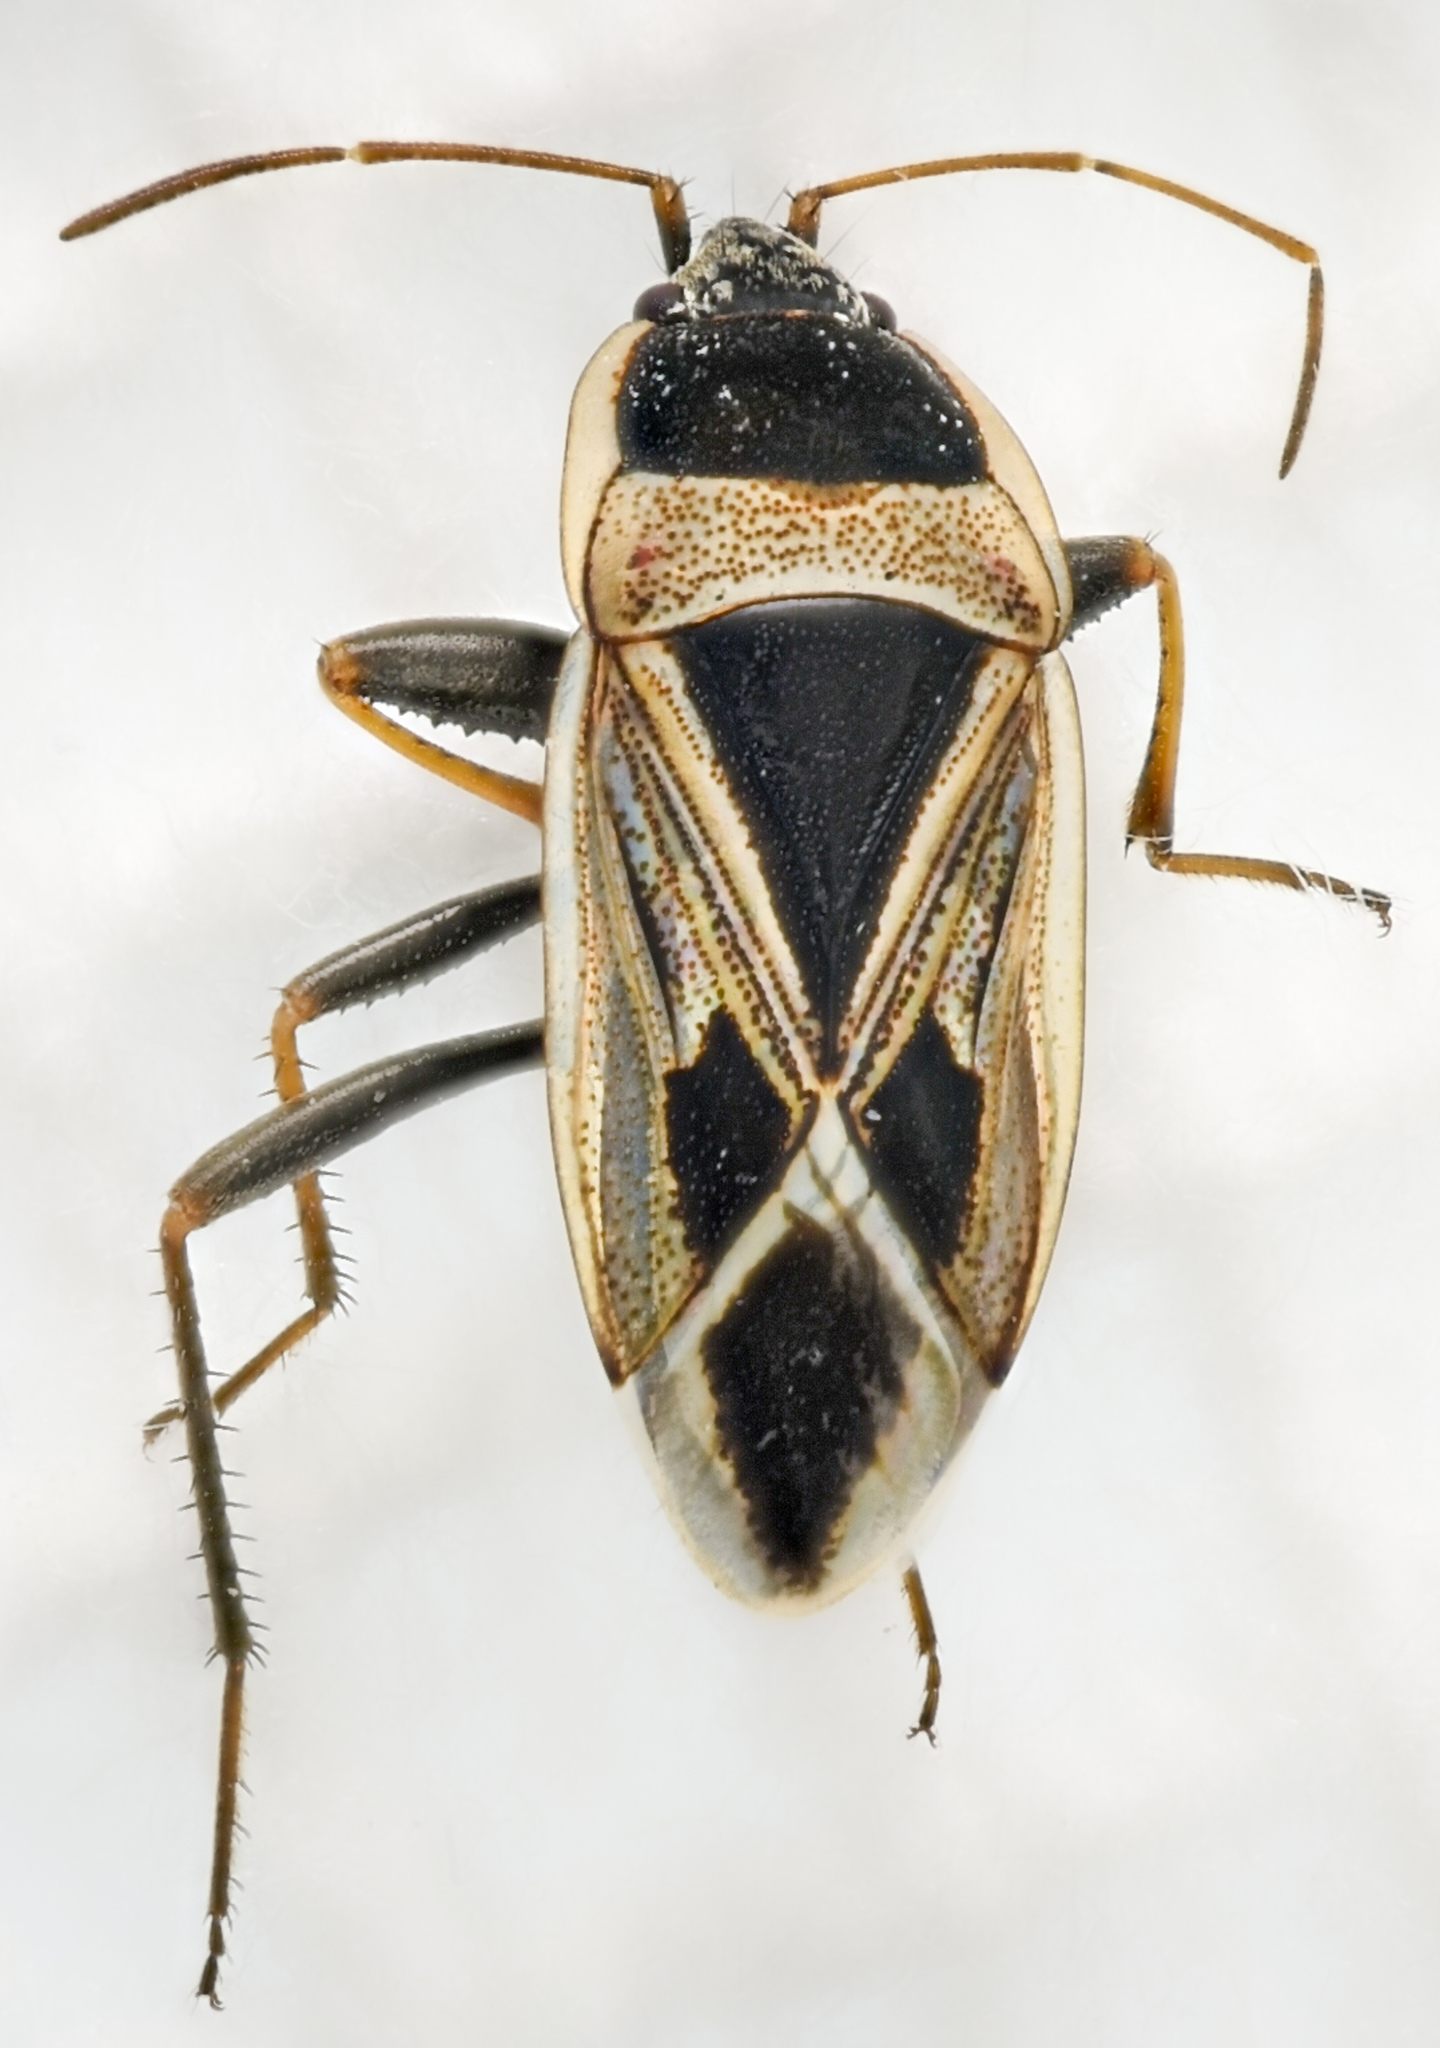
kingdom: Animalia
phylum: Arthropoda
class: Insecta
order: Hemiptera
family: Rhyparochromidae
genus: Xanthochilus
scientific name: Xanthochilus saturnius
